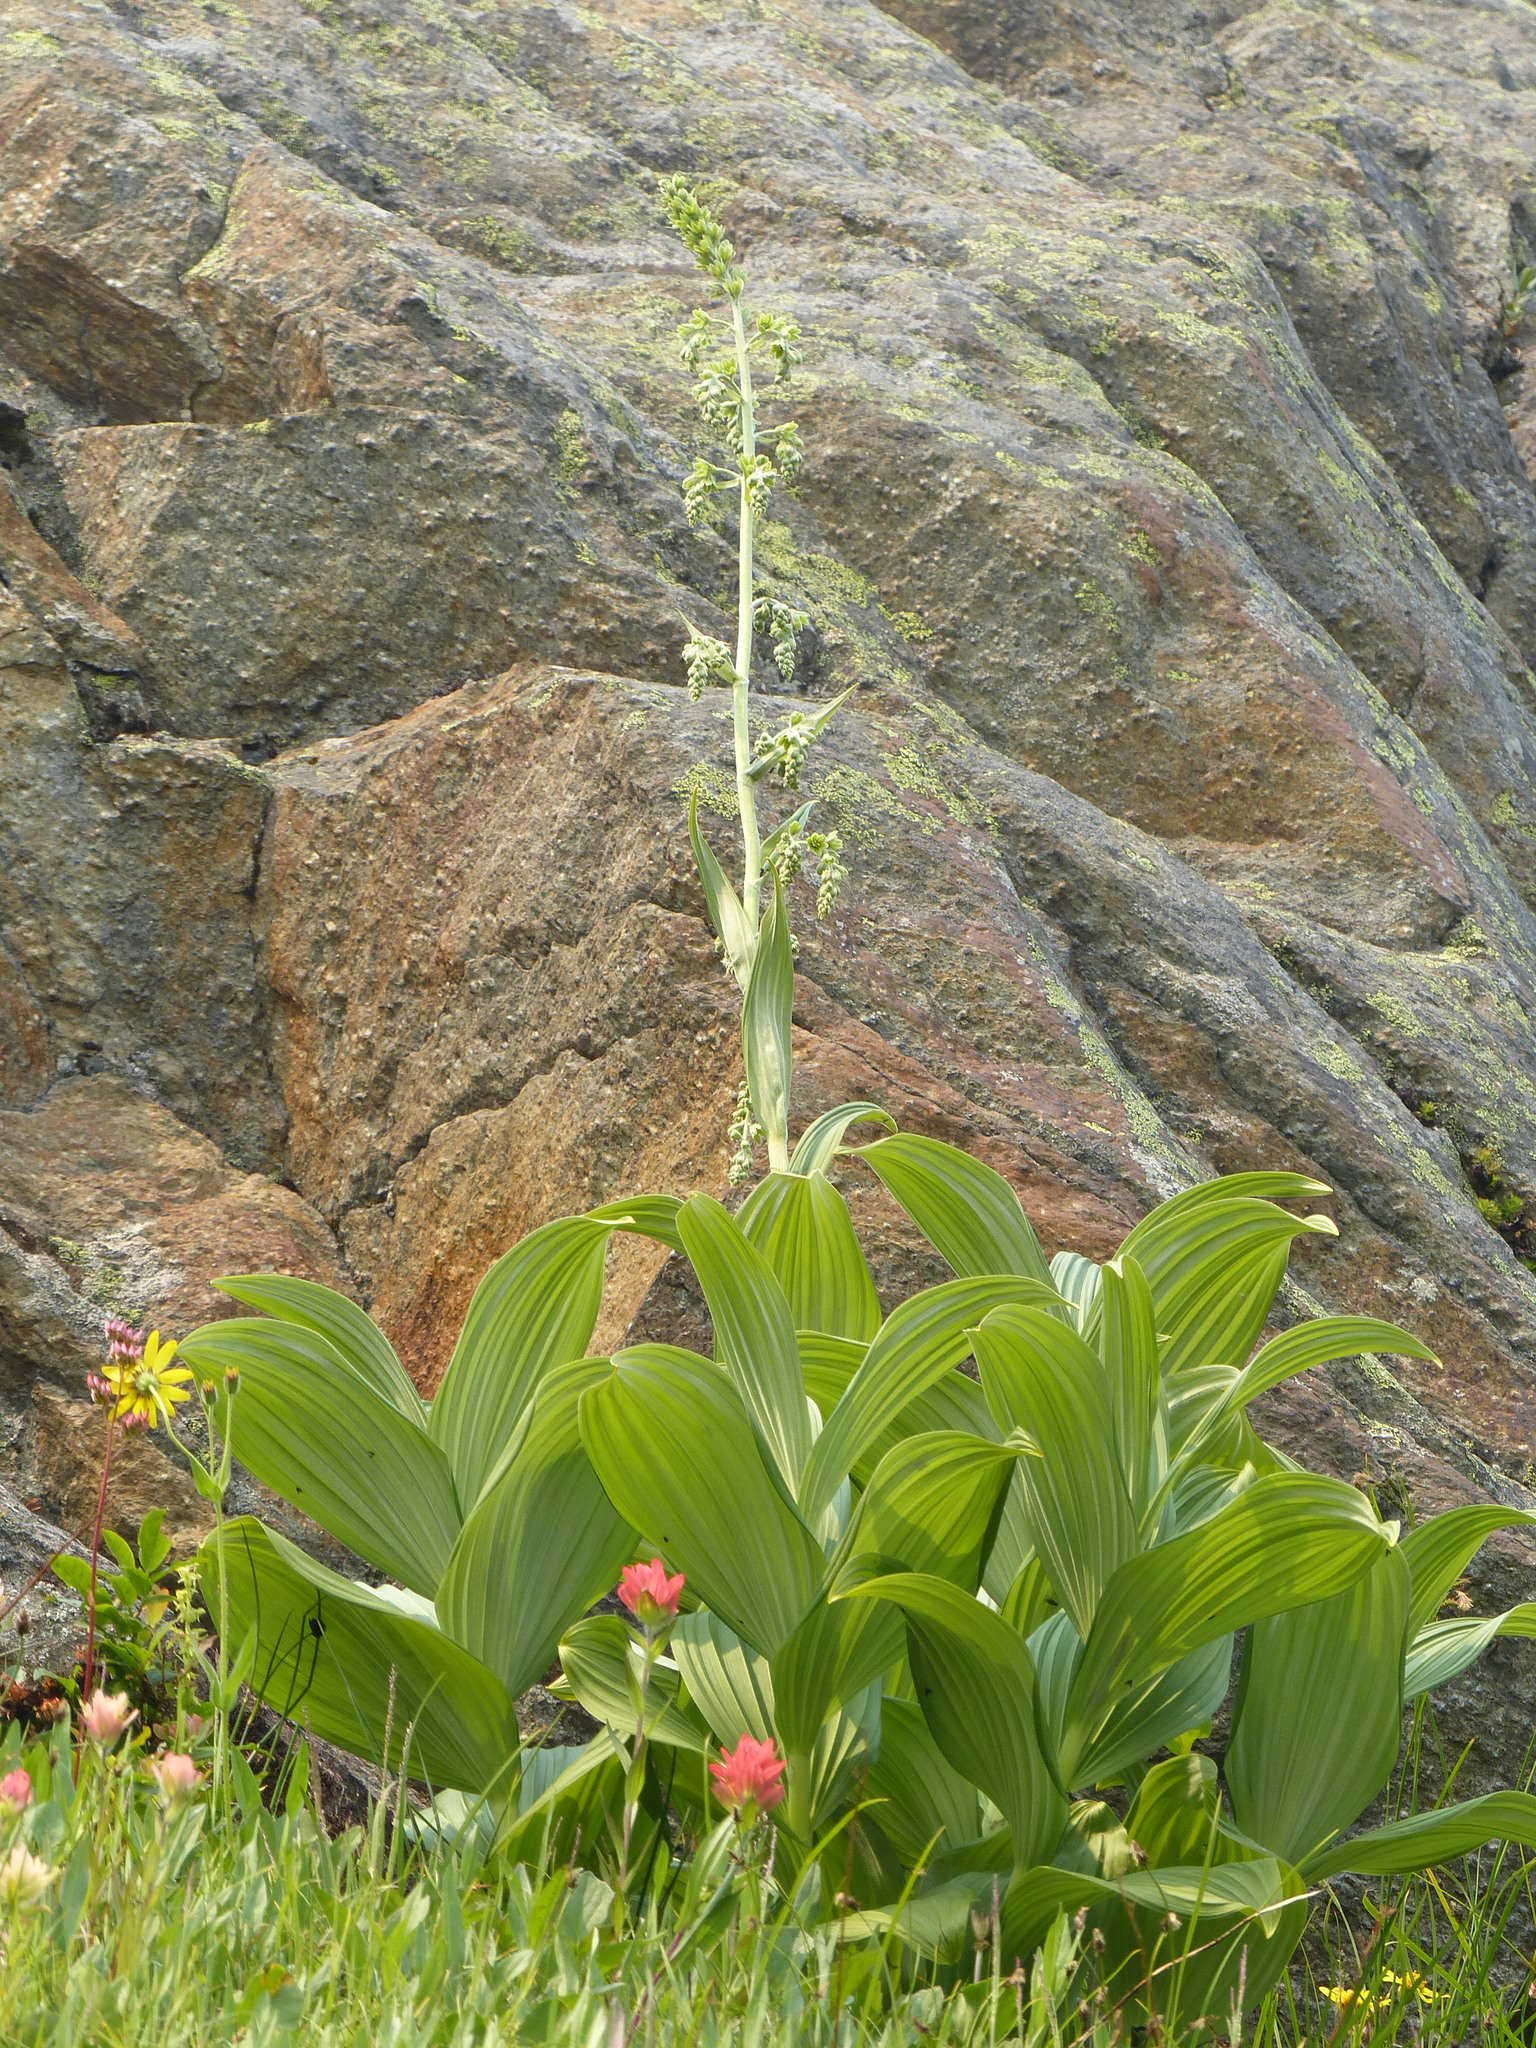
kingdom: Plantae
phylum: Tracheophyta
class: Liliopsida
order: Liliales
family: Melanthiaceae
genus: Veratrum
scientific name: Veratrum viride
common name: American false hellebore
